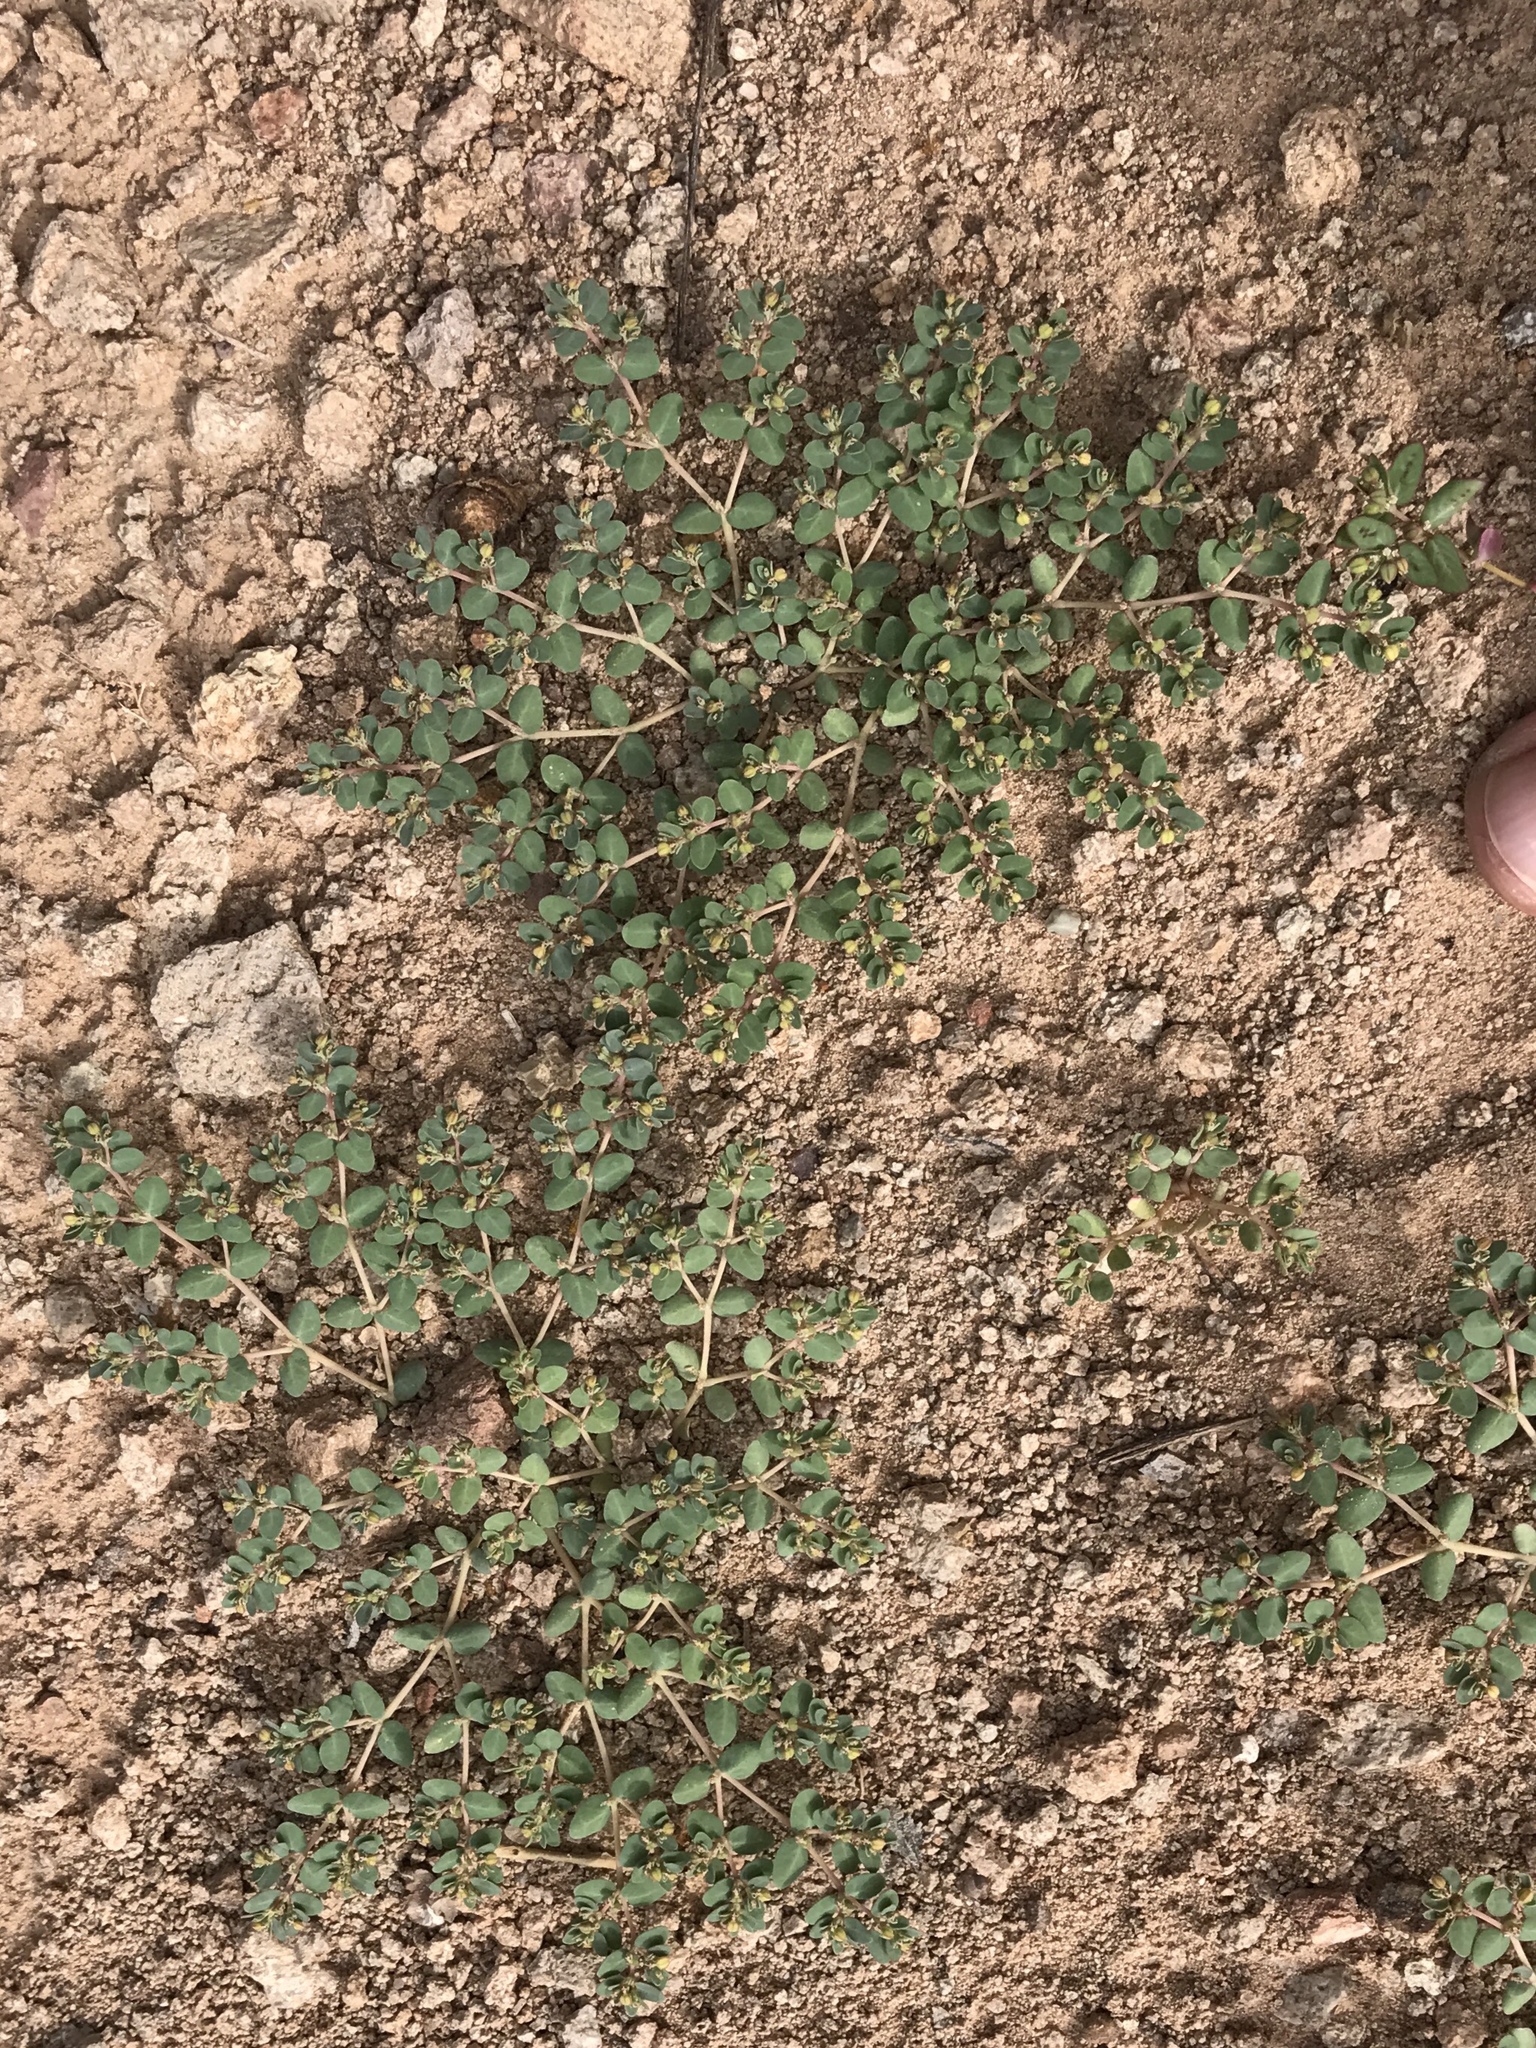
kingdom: Plantae
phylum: Tracheophyta
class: Magnoliopsida
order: Malpighiales
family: Euphorbiaceae
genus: Euphorbia
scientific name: Euphorbia micromera
